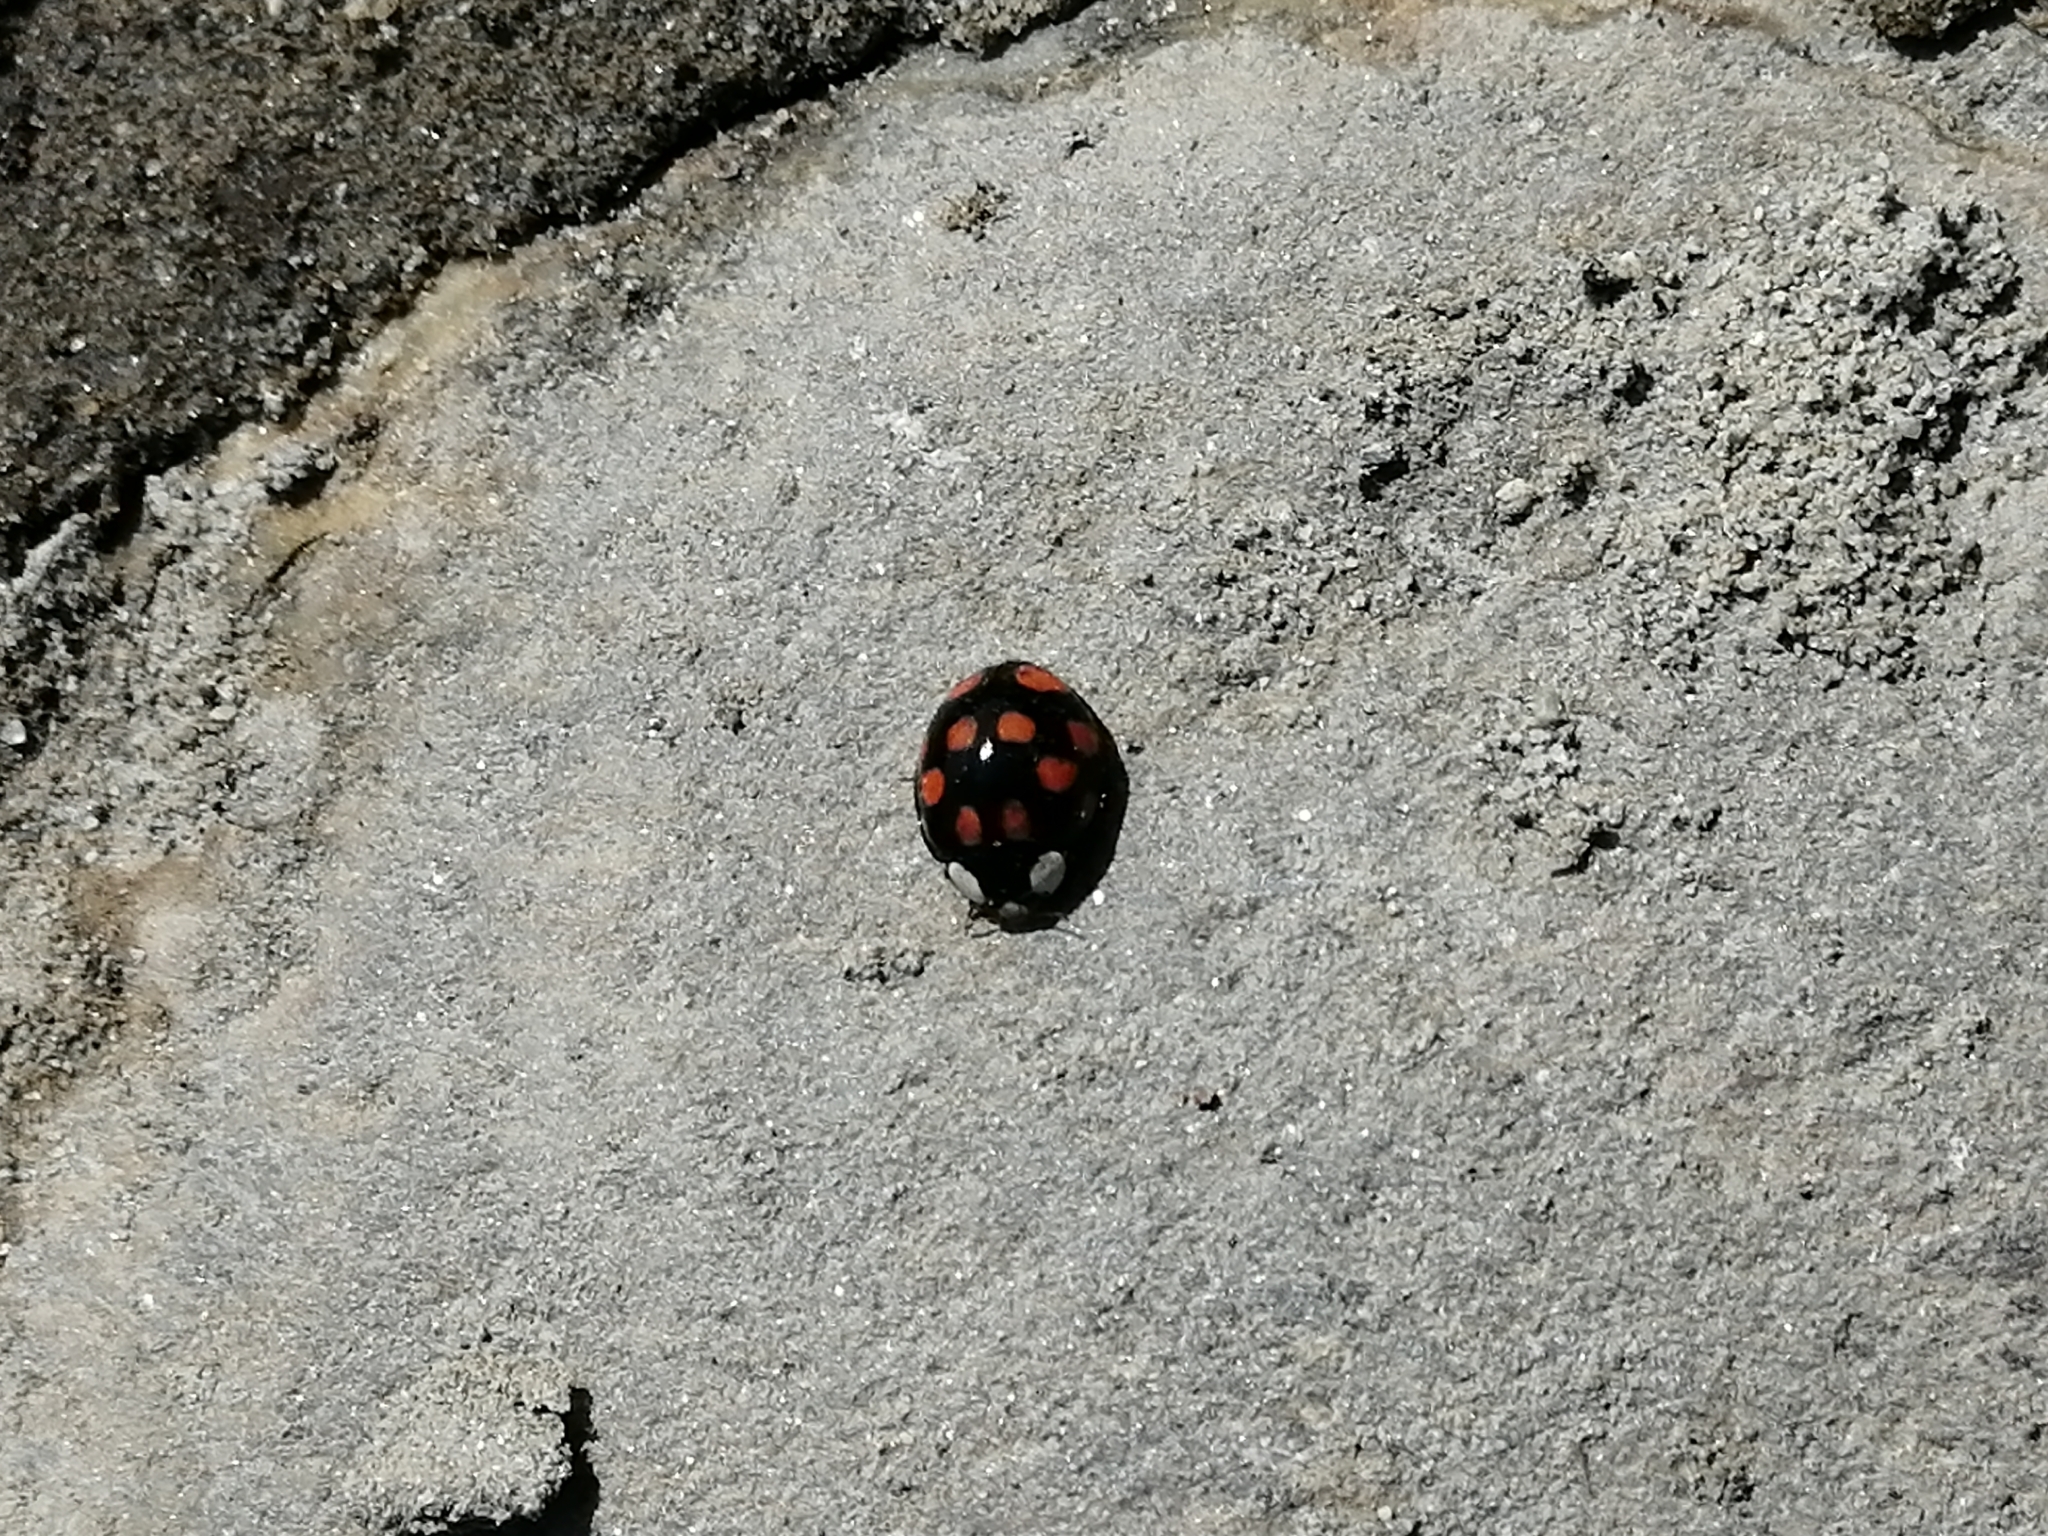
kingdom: Animalia
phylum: Arthropoda
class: Insecta
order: Coleoptera
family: Coccinellidae
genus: Harmonia
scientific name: Harmonia axyridis
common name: Harlequin ladybird
